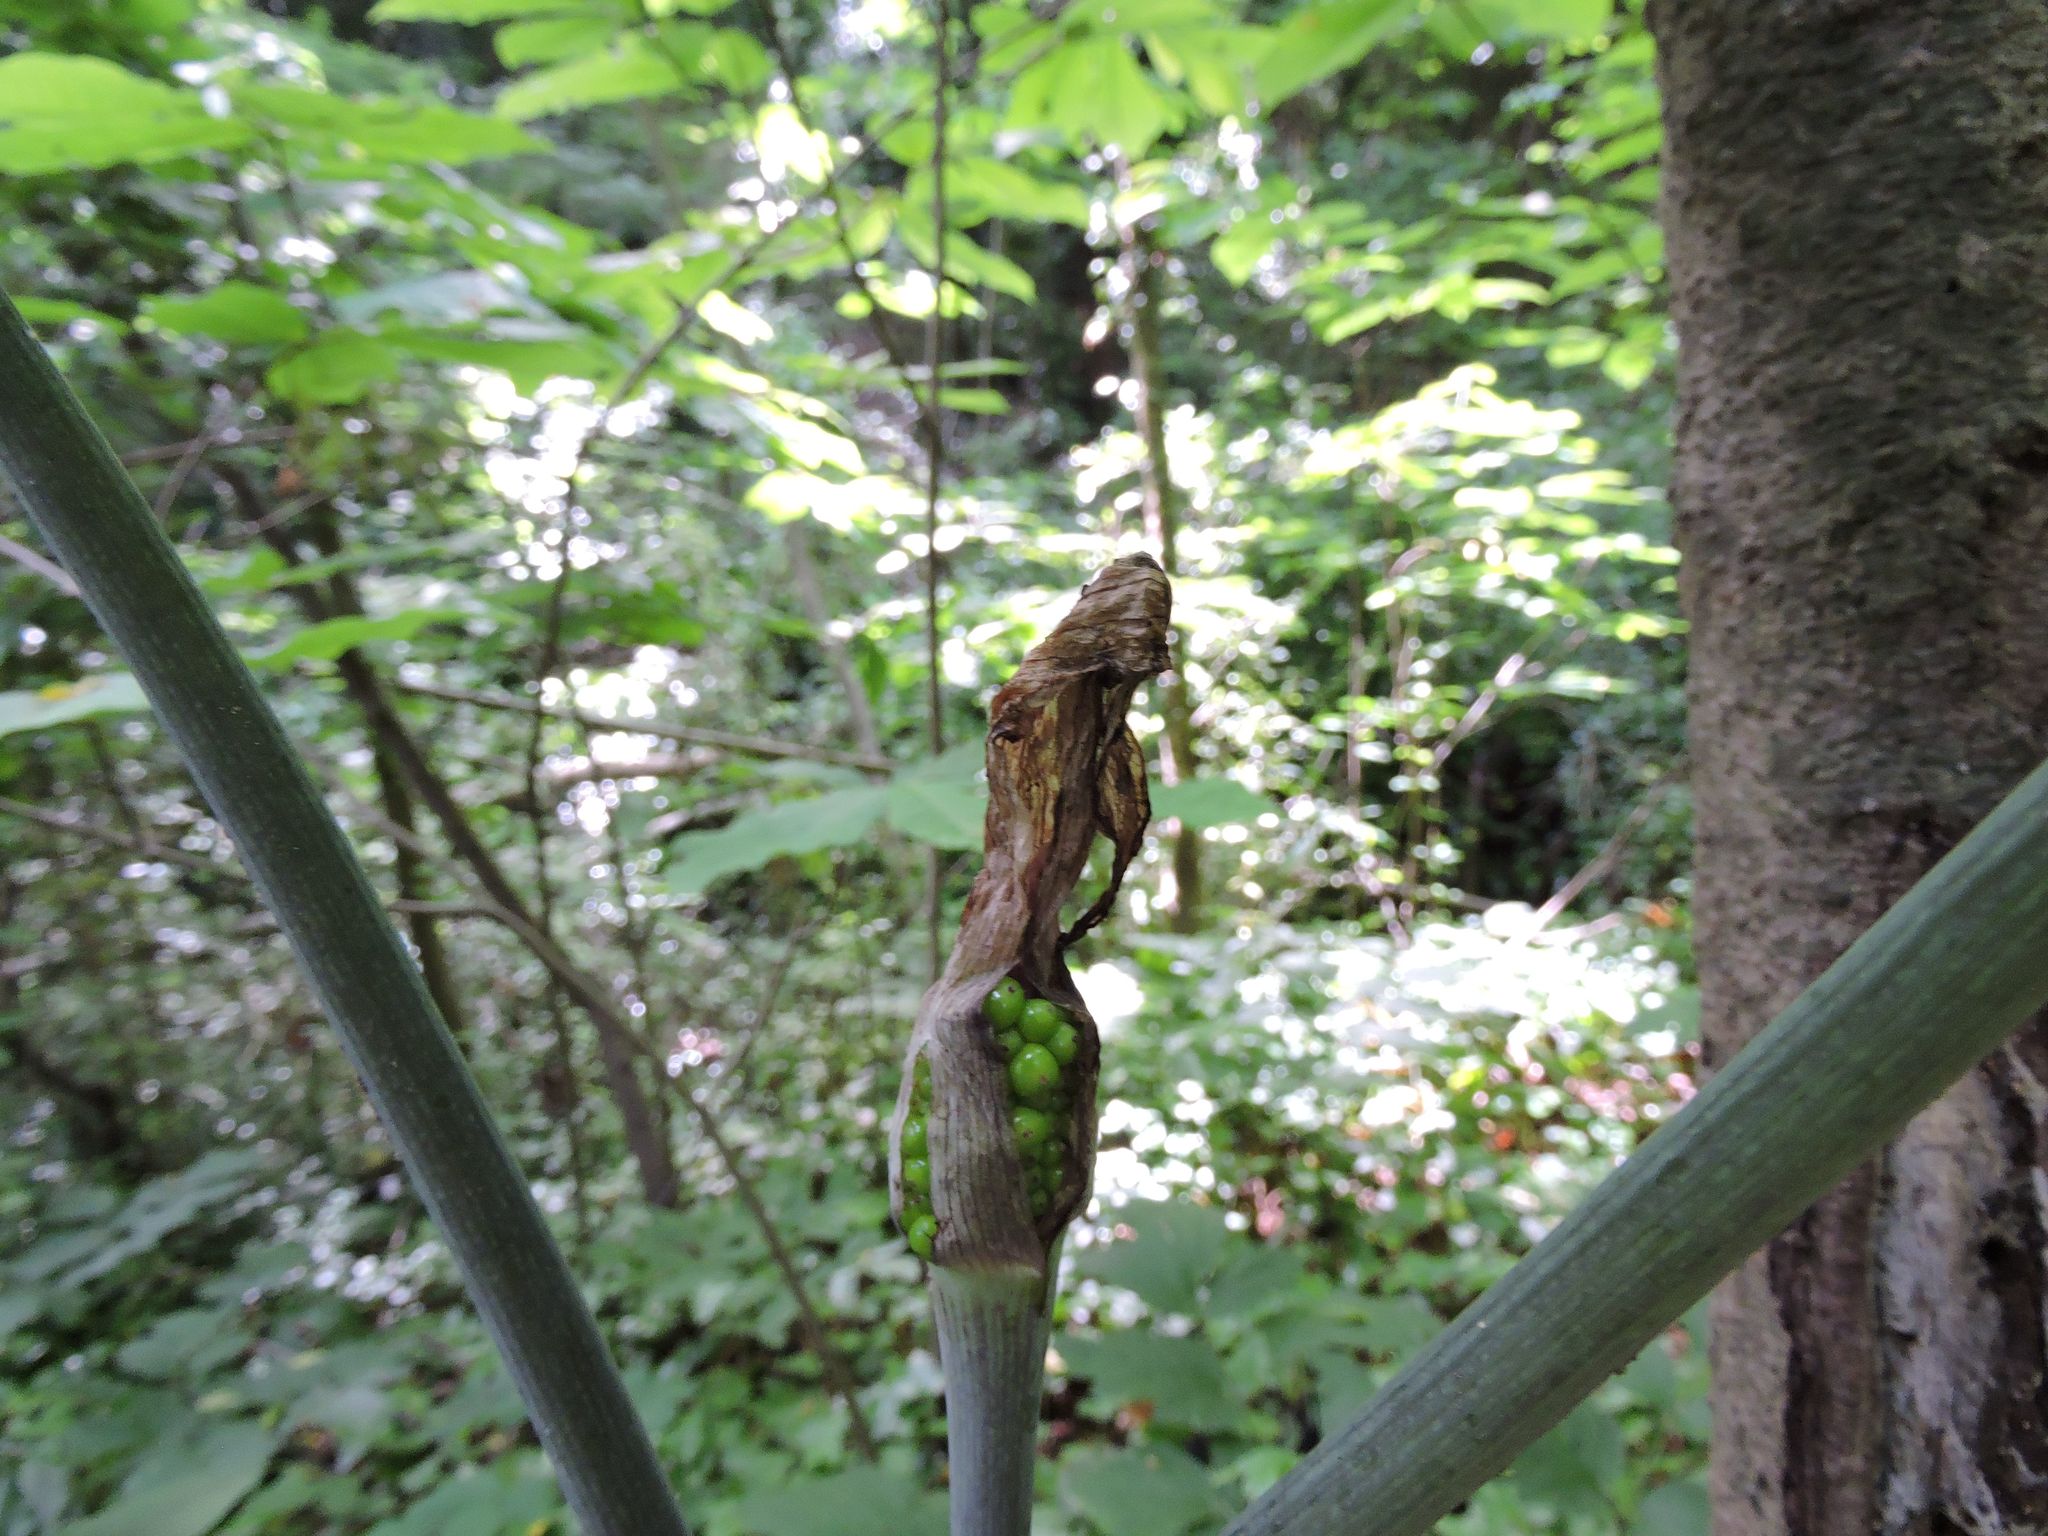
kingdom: Plantae
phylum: Tracheophyta
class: Liliopsida
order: Alismatales
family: Araceae
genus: Arisaema
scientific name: Arisaema triphyllum
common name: Jack-in-the-pulpit
